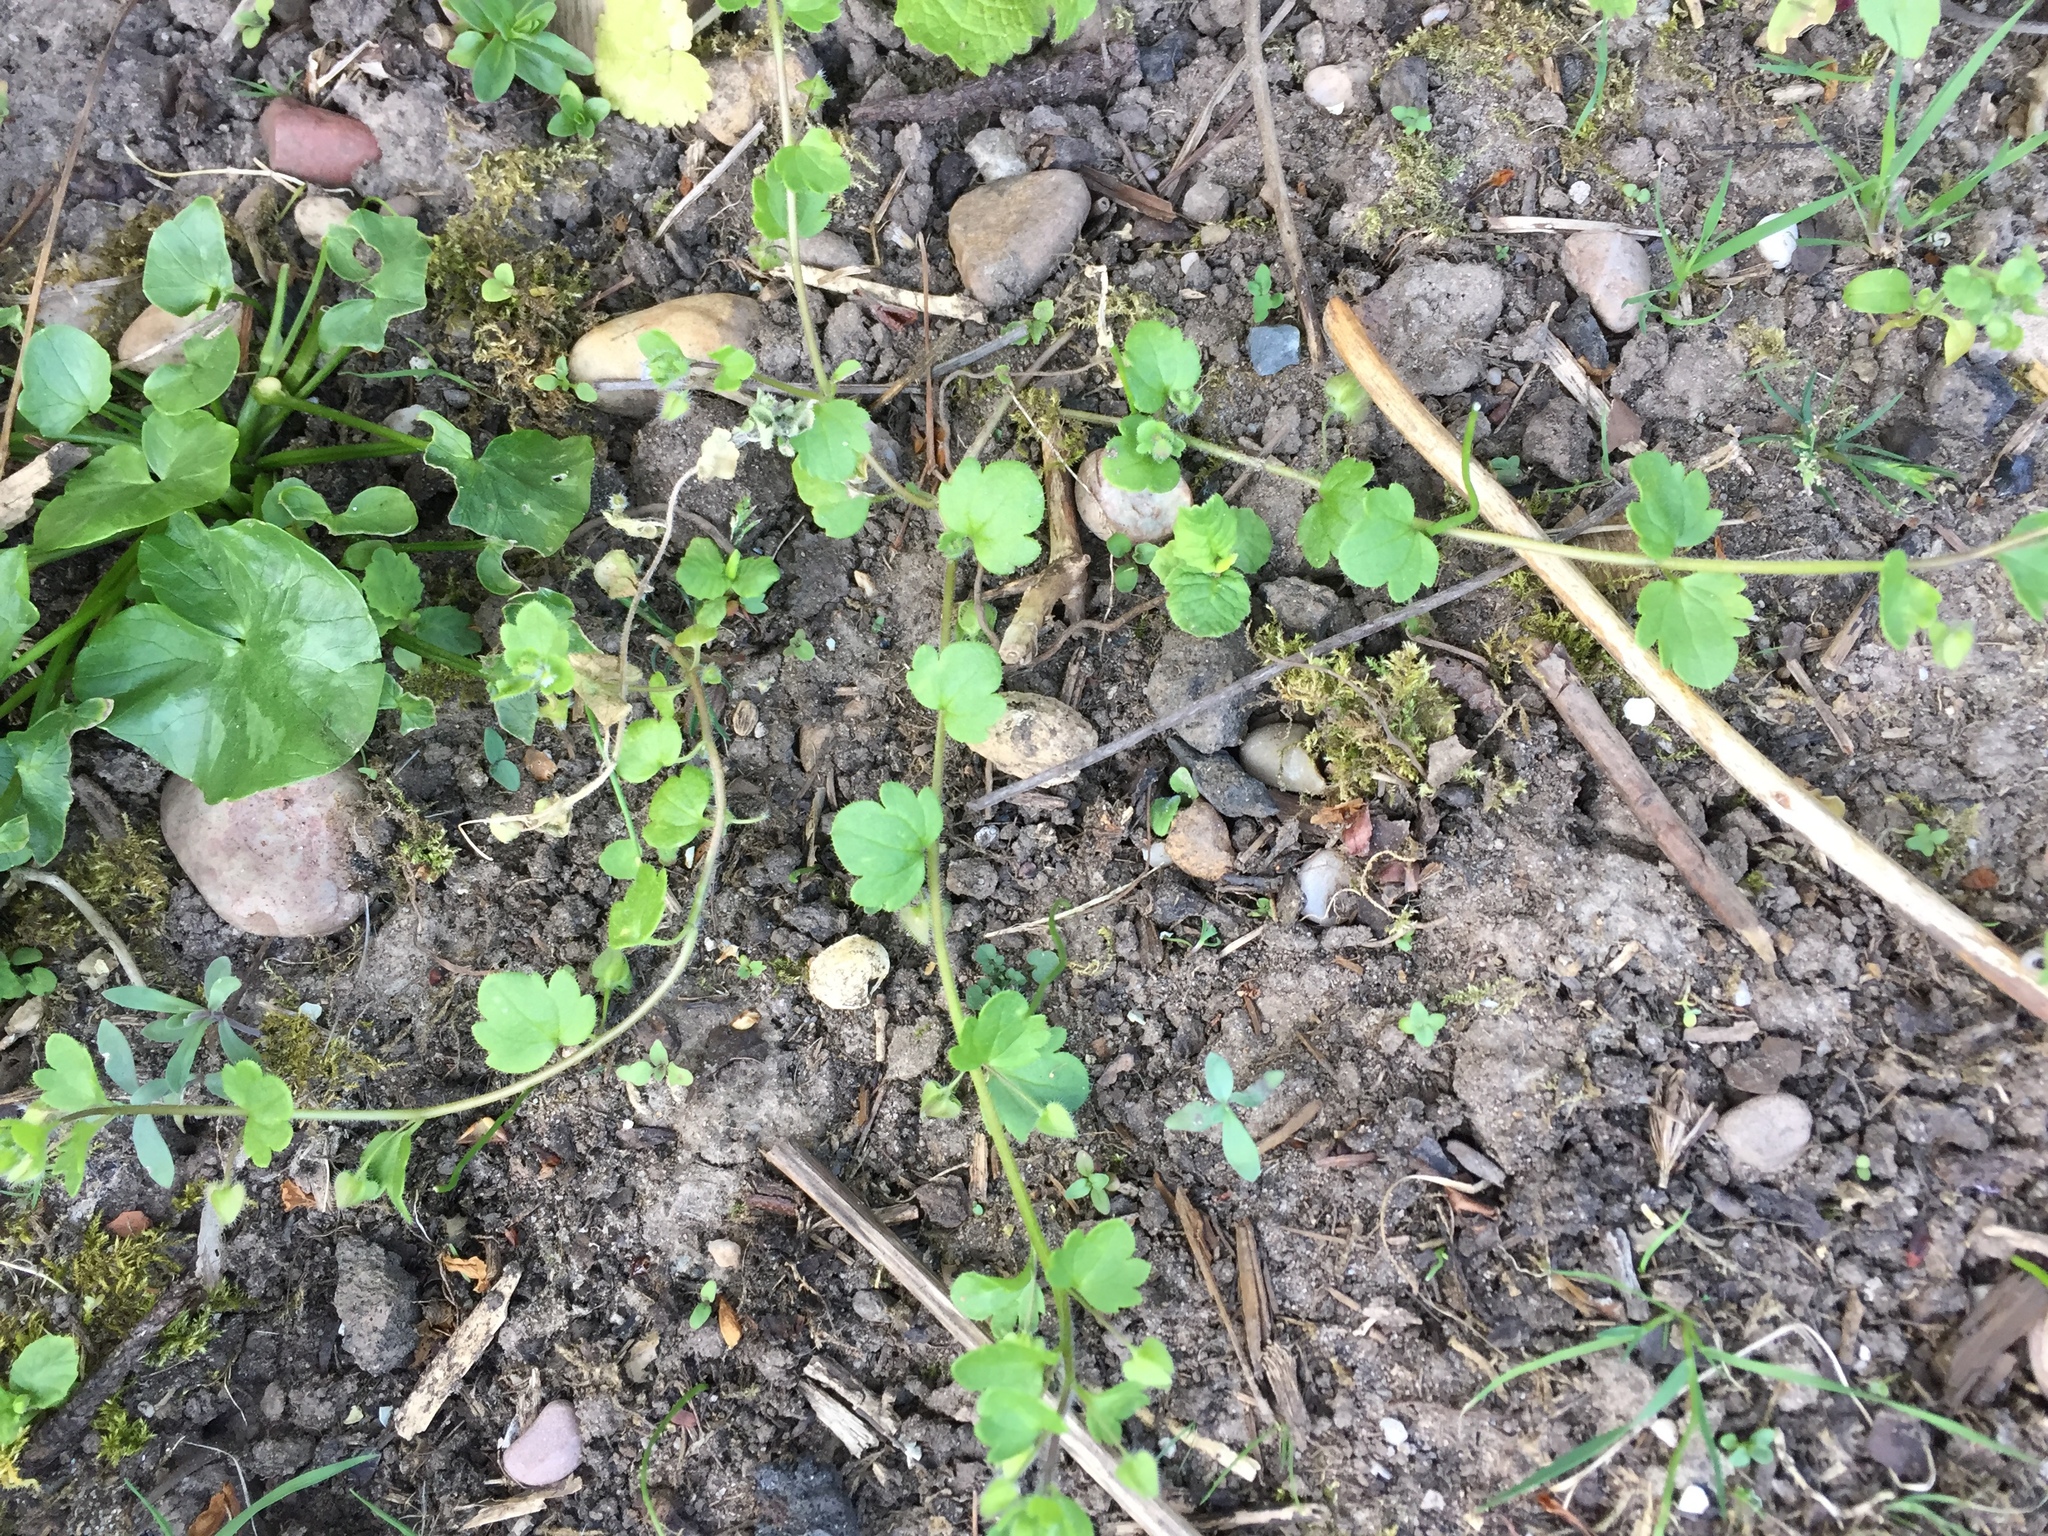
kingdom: Plantae
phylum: Tracheophyta
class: Magnoliopsida
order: Lamiales
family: Plantaginaceae
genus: Veronica
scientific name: Veronica hederifolia
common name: Ivy-leaved speedwell
